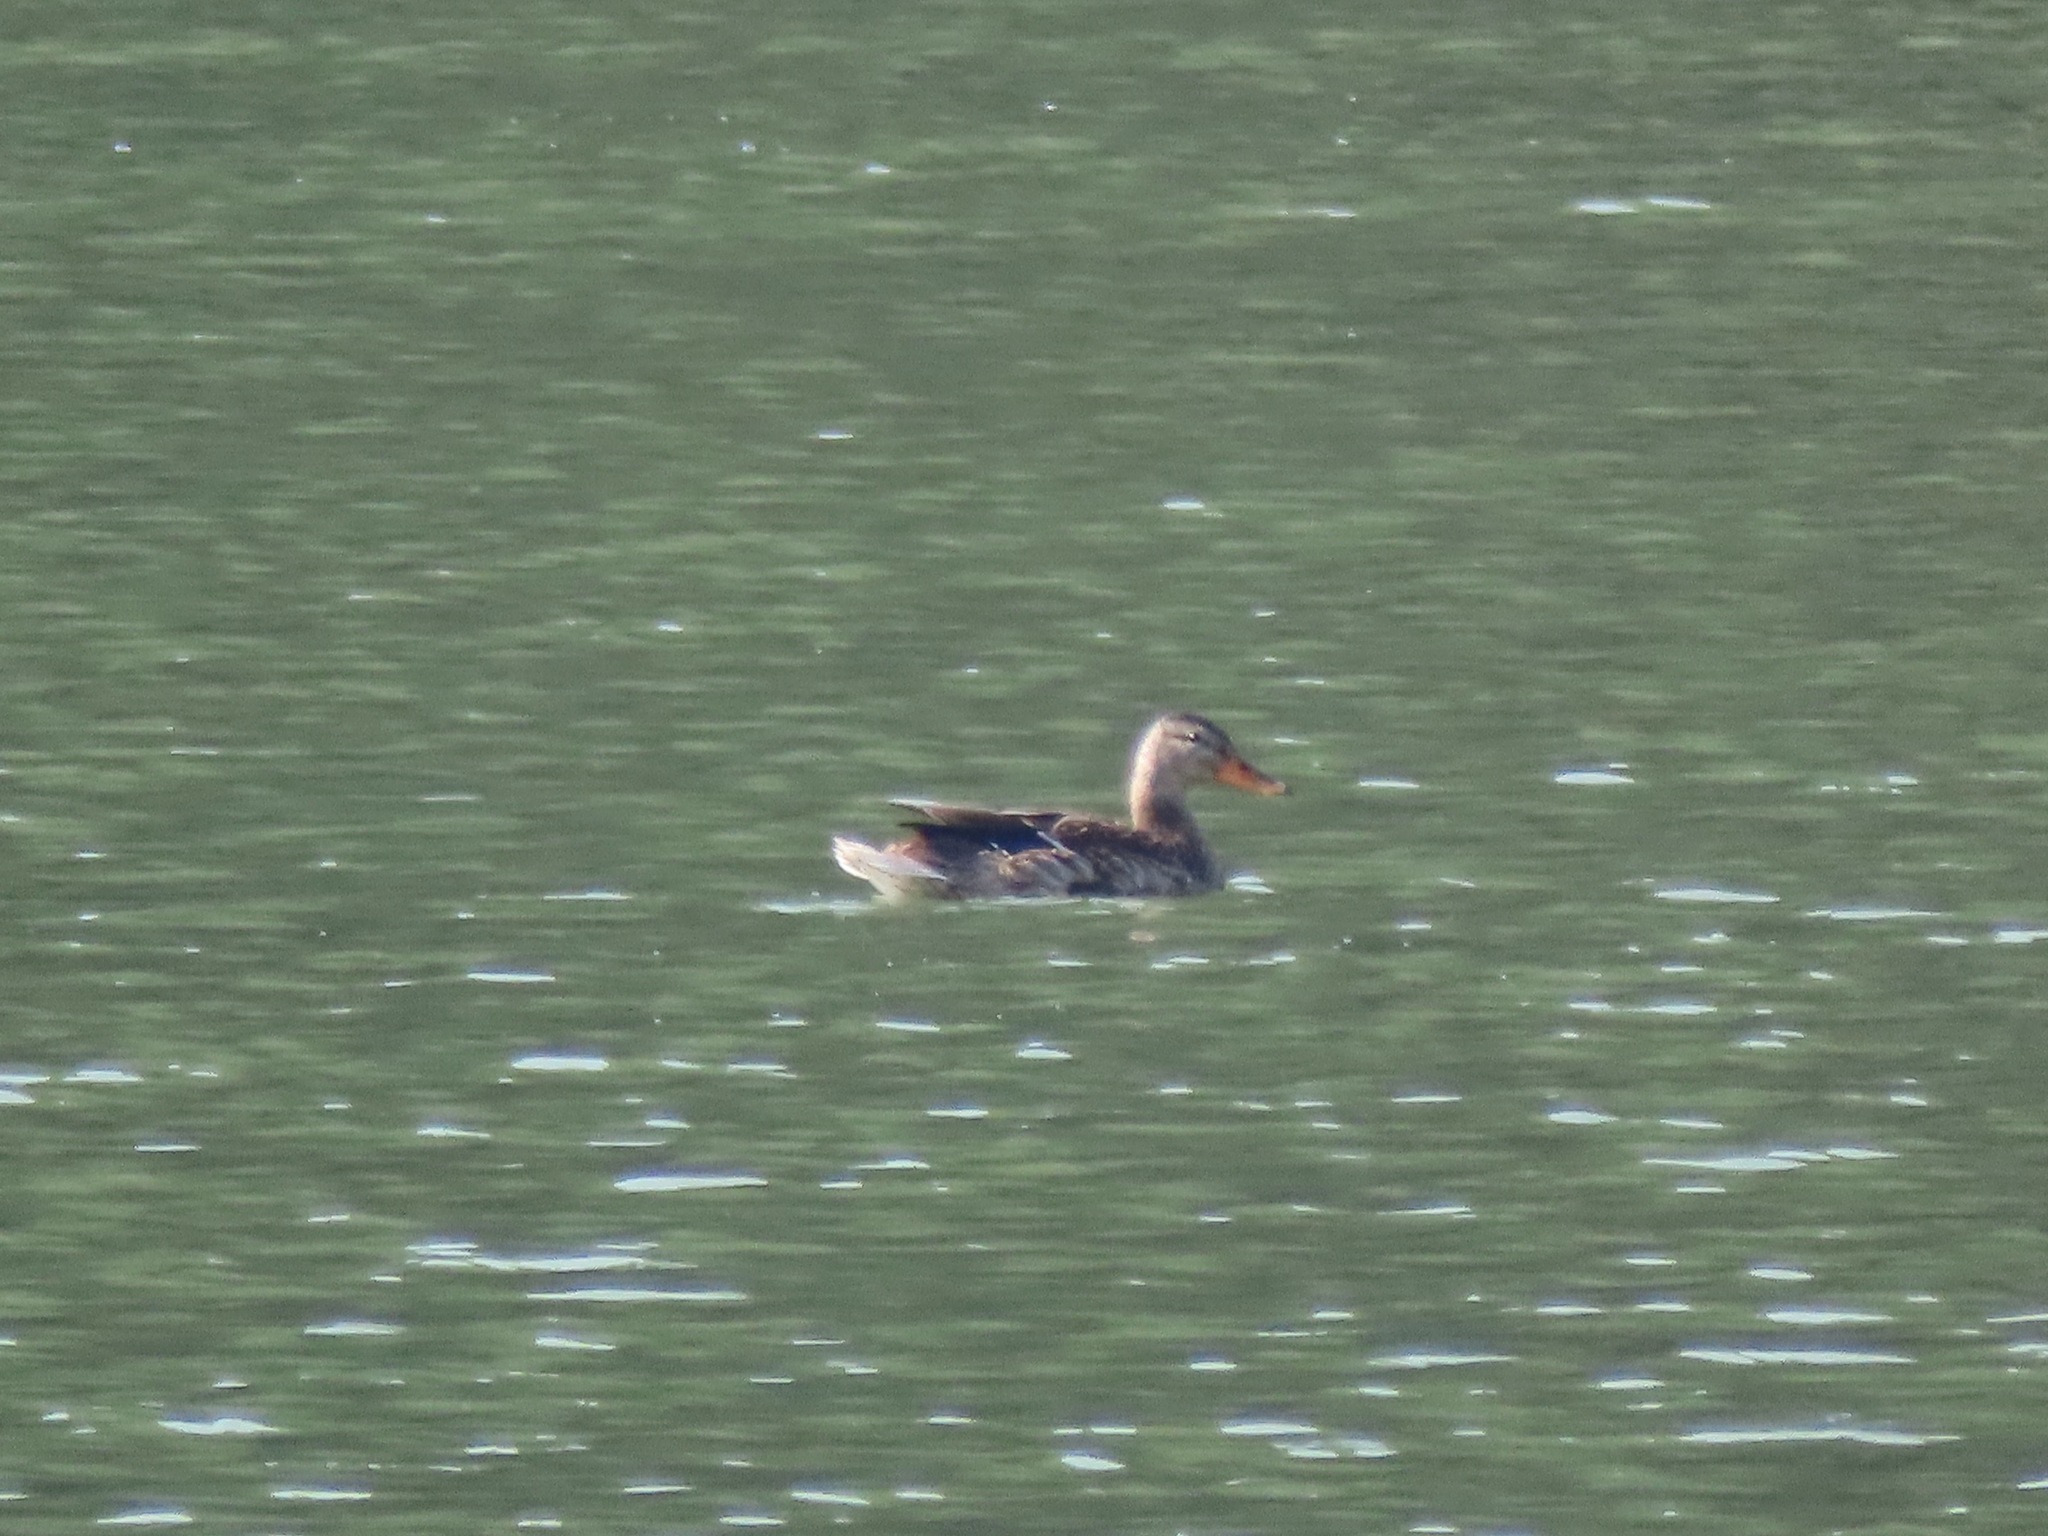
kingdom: Animalia
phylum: Chordata
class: Aves
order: Anseriformes
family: Anatidae
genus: Anas
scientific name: Anas platyrhynchos
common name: Mallard
